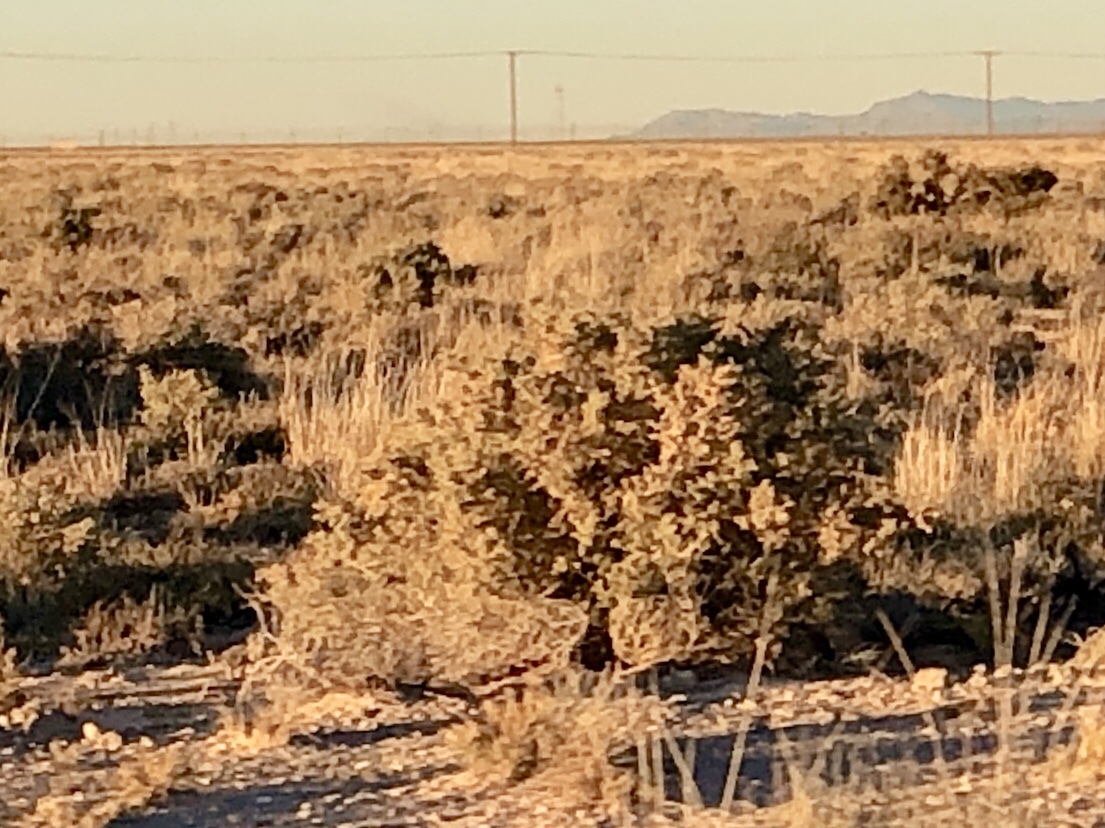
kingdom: Plantae
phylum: Tracheophyta
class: Magnoliopsida
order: Caryophyllales
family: Amaranthaceae
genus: Atriplex
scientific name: Atriplex canescens
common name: Four-wing saltbush
